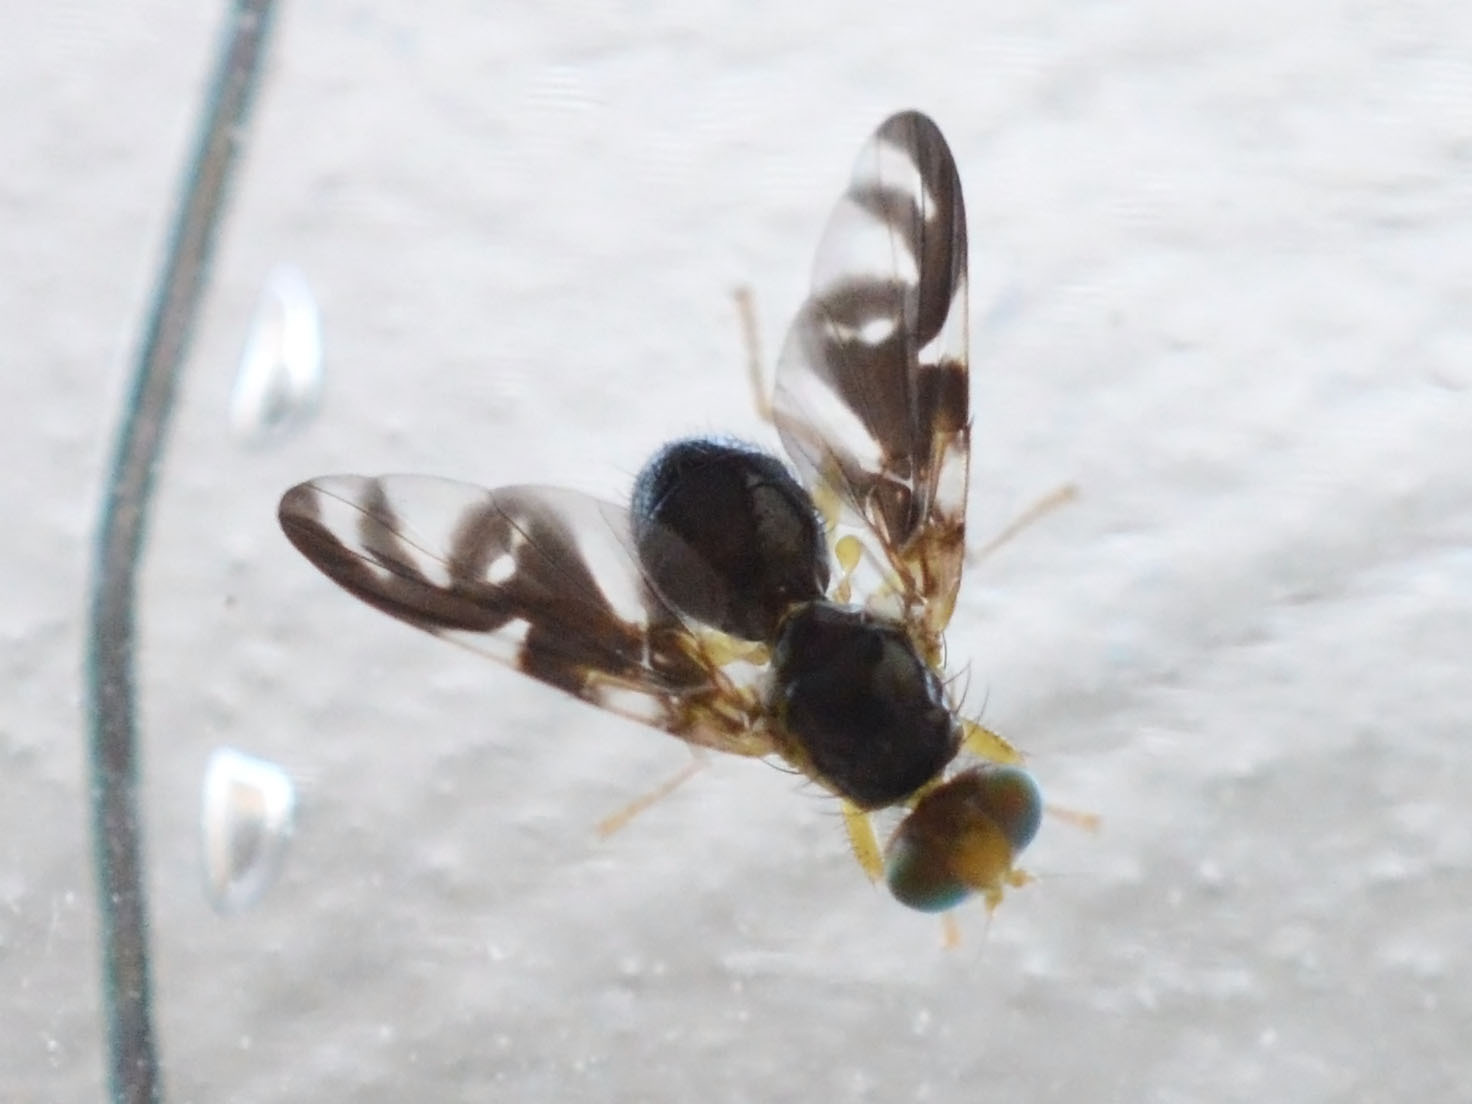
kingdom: Animalia
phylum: Arthropoda
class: Insecta
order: Diptera
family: Tephritidae
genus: Euleia
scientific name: Euleia heraclei
